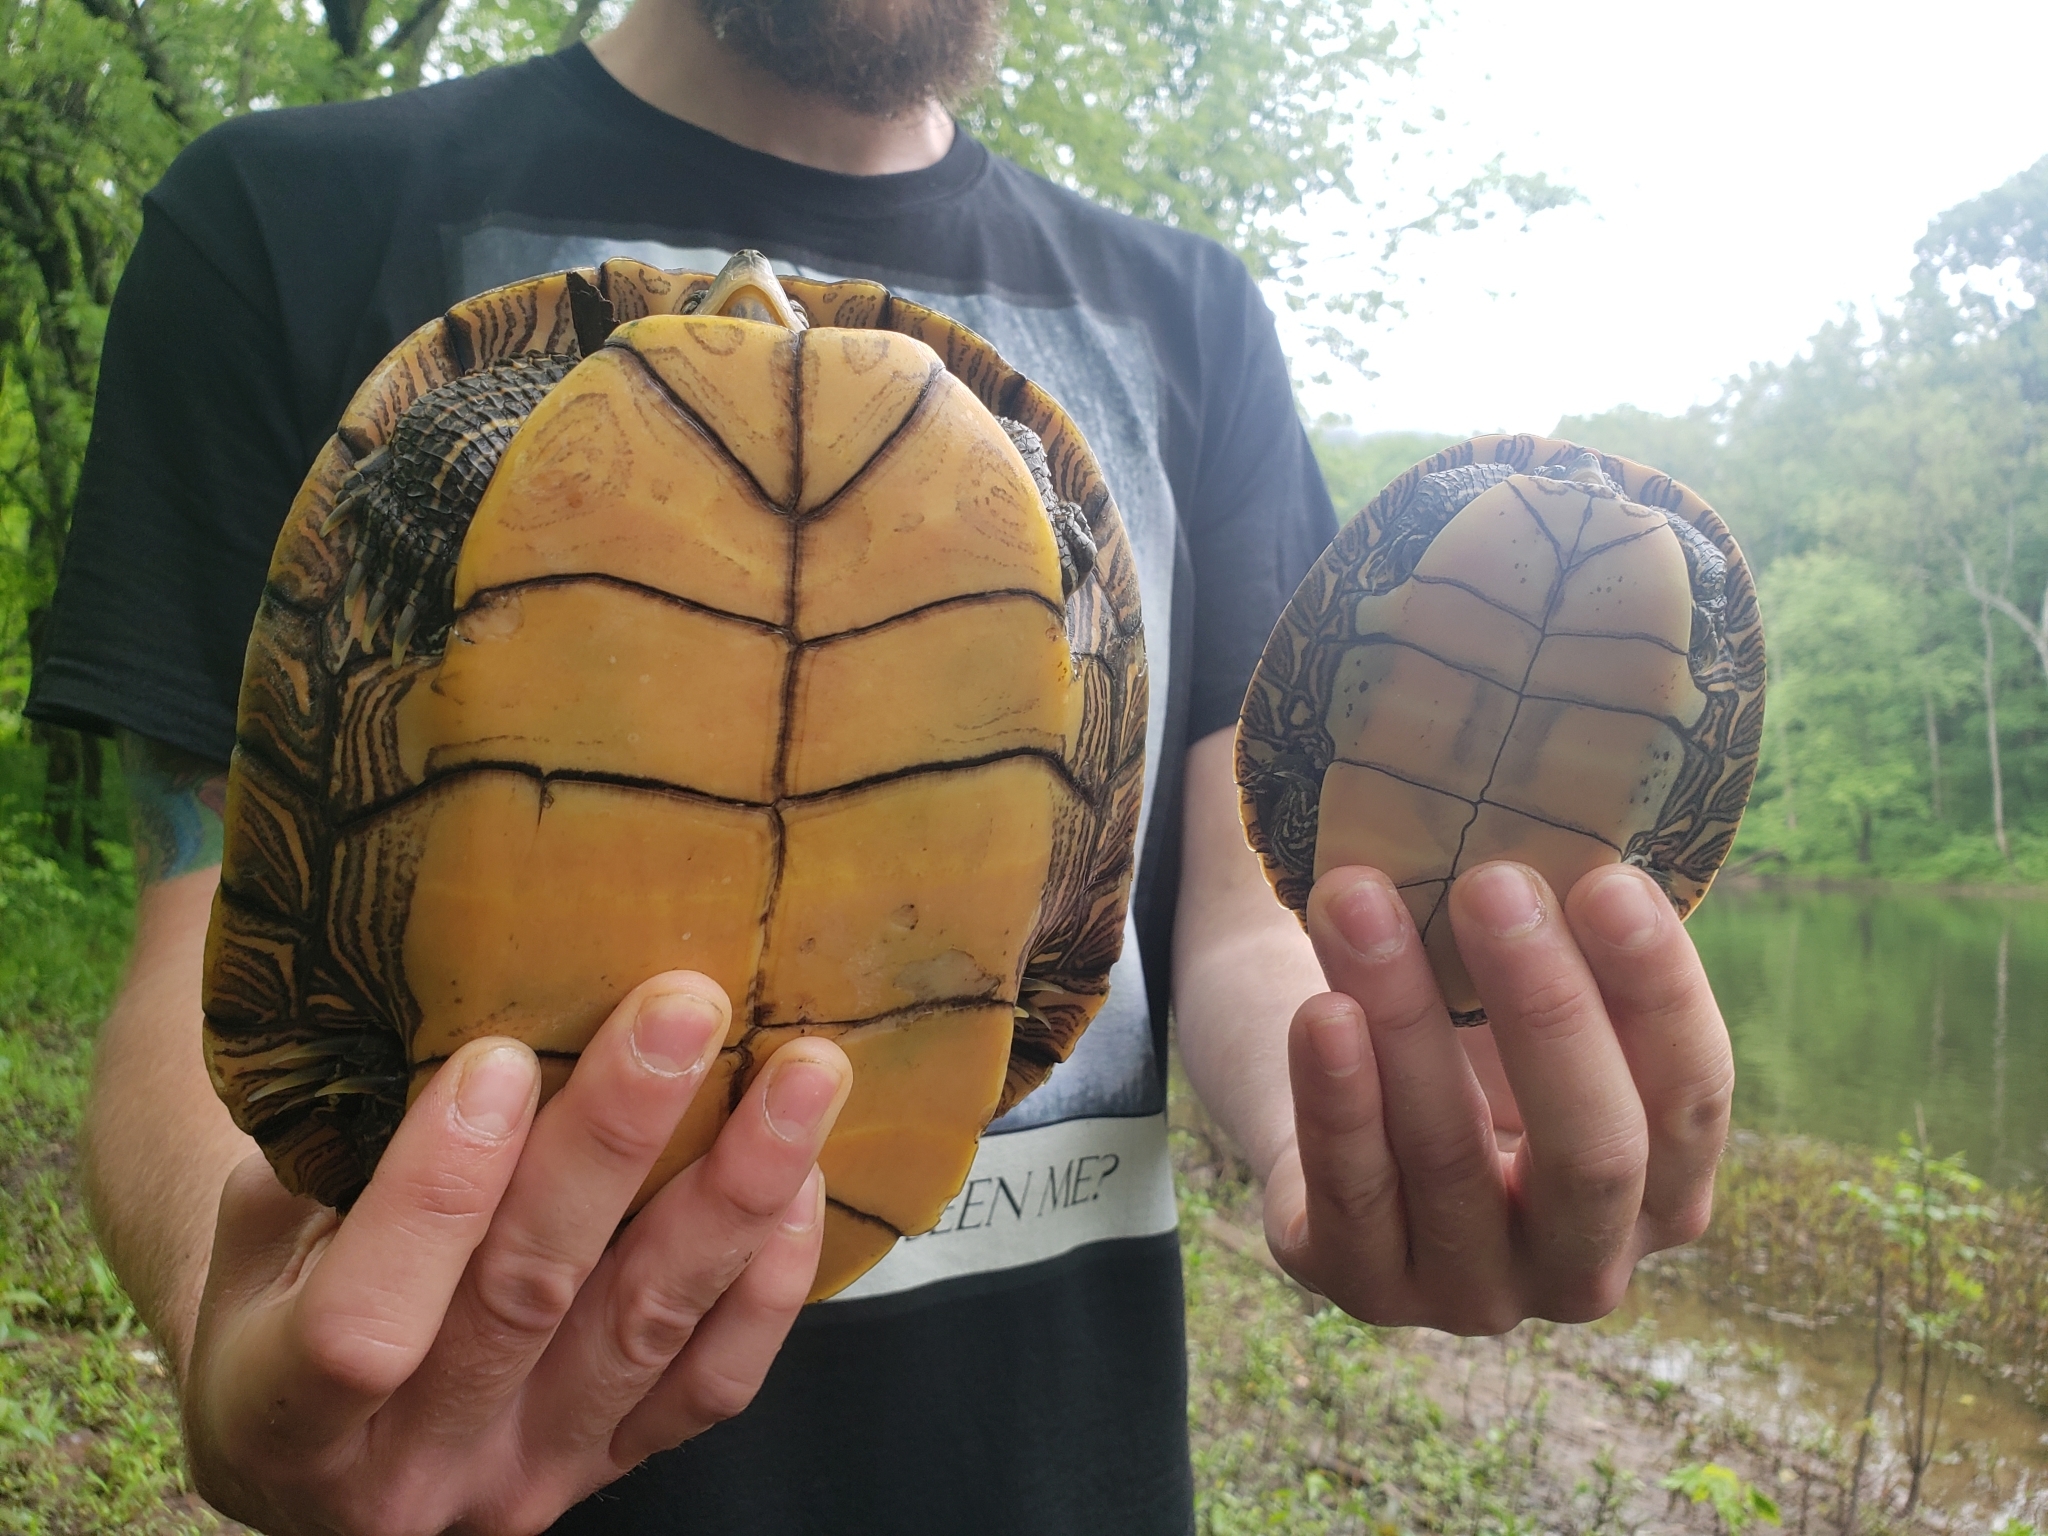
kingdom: Animalia
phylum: Chordata
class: Testudines
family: Emydidae
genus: Graptemys
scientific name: Graptemys geographica
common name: Common map turtle
